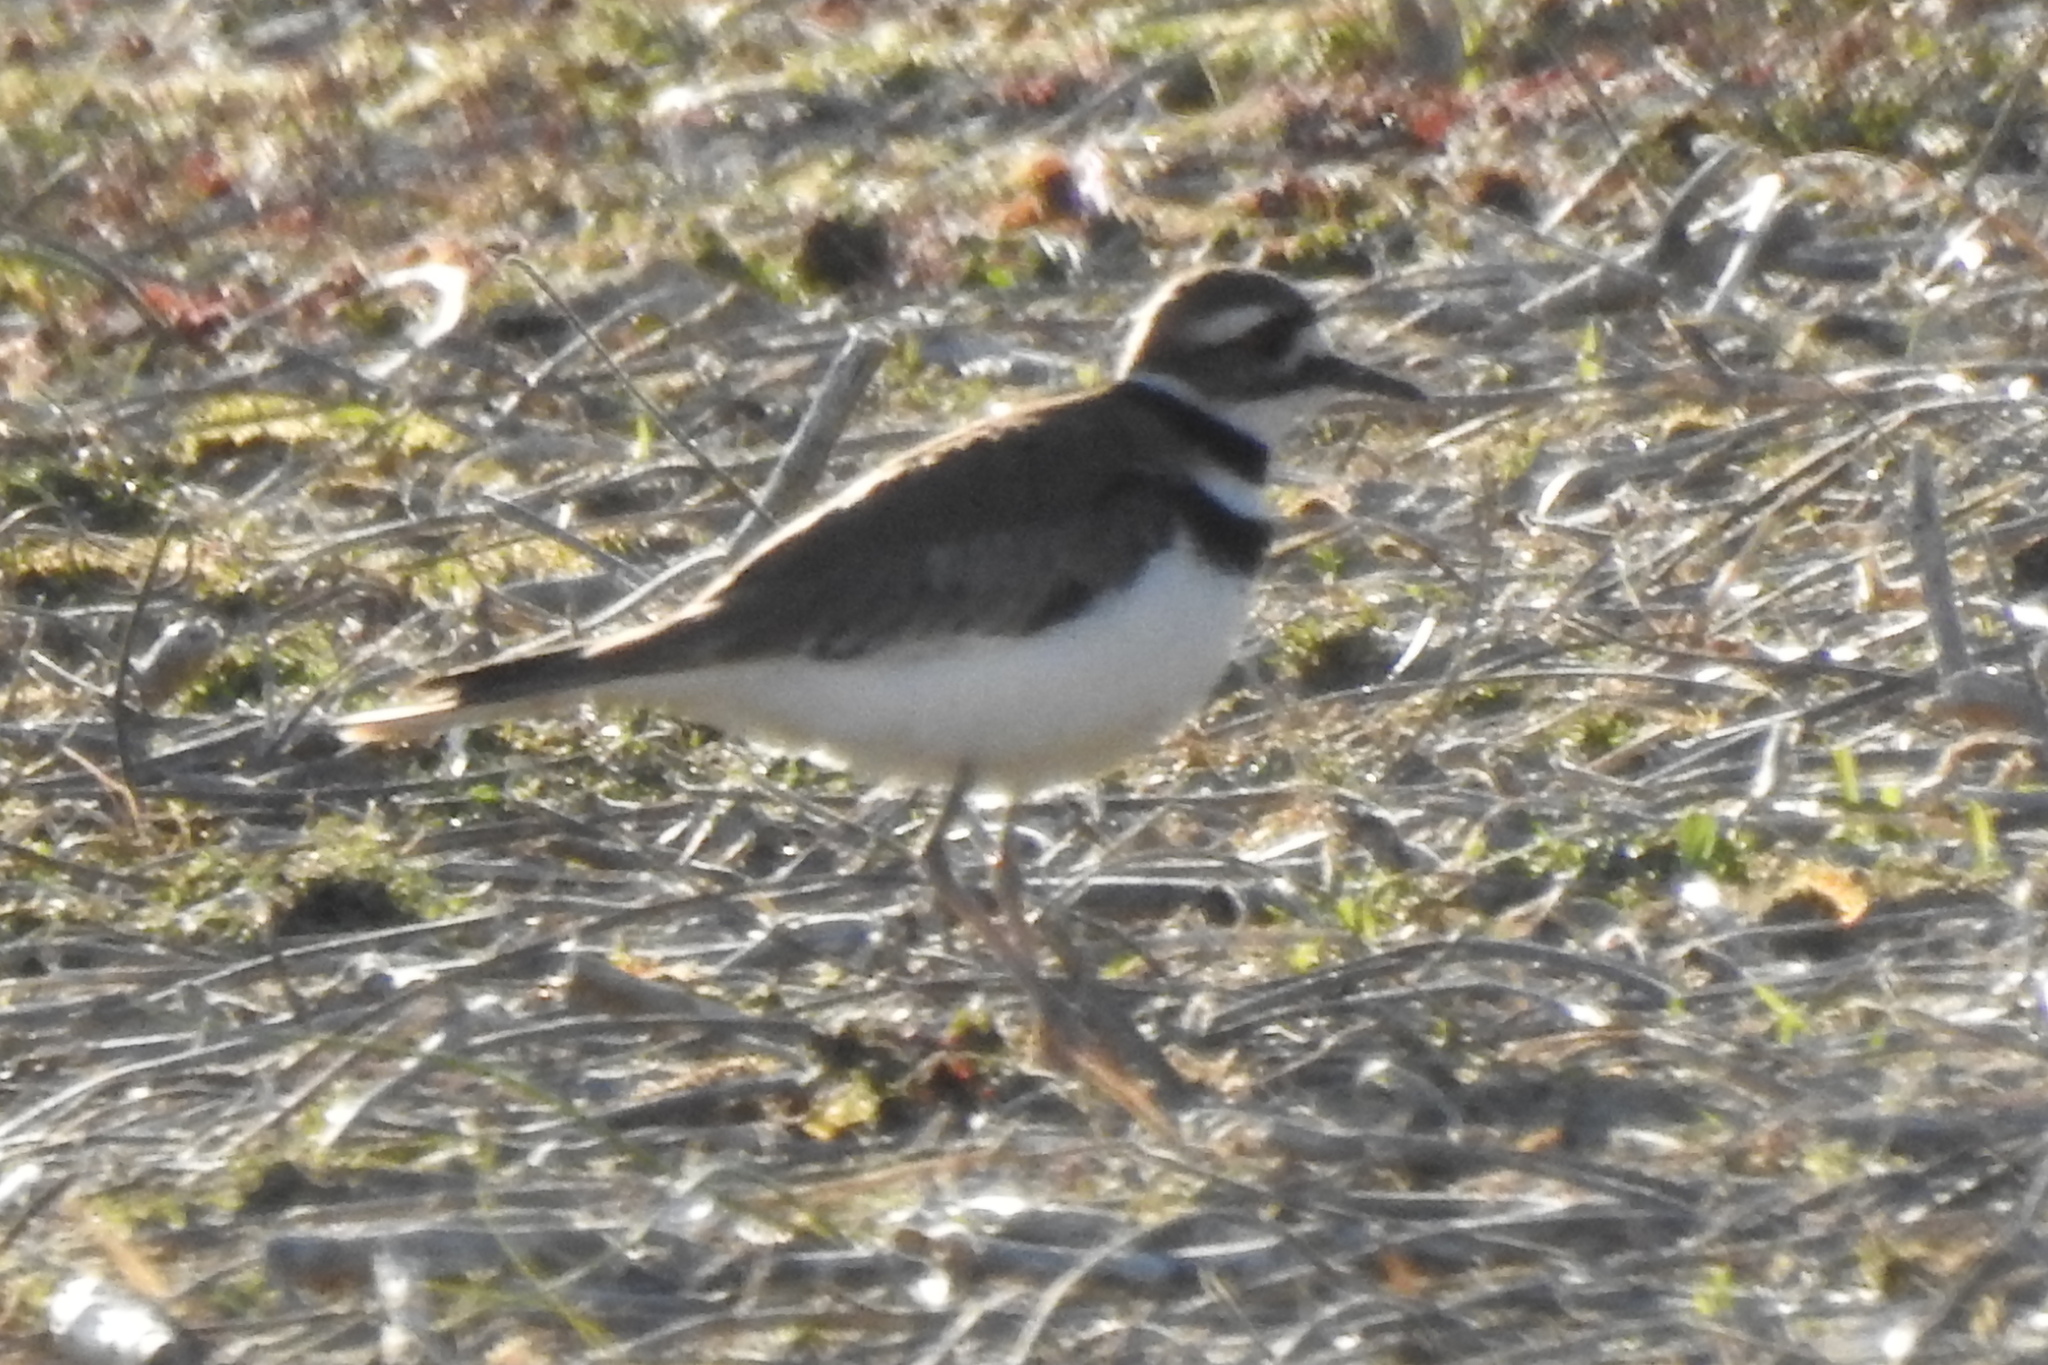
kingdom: Animalia
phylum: Chordata
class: Aves
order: Charadriiformes
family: Charadriidae
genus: Charadrius
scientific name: Charadrius vociferus
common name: Killdeer
